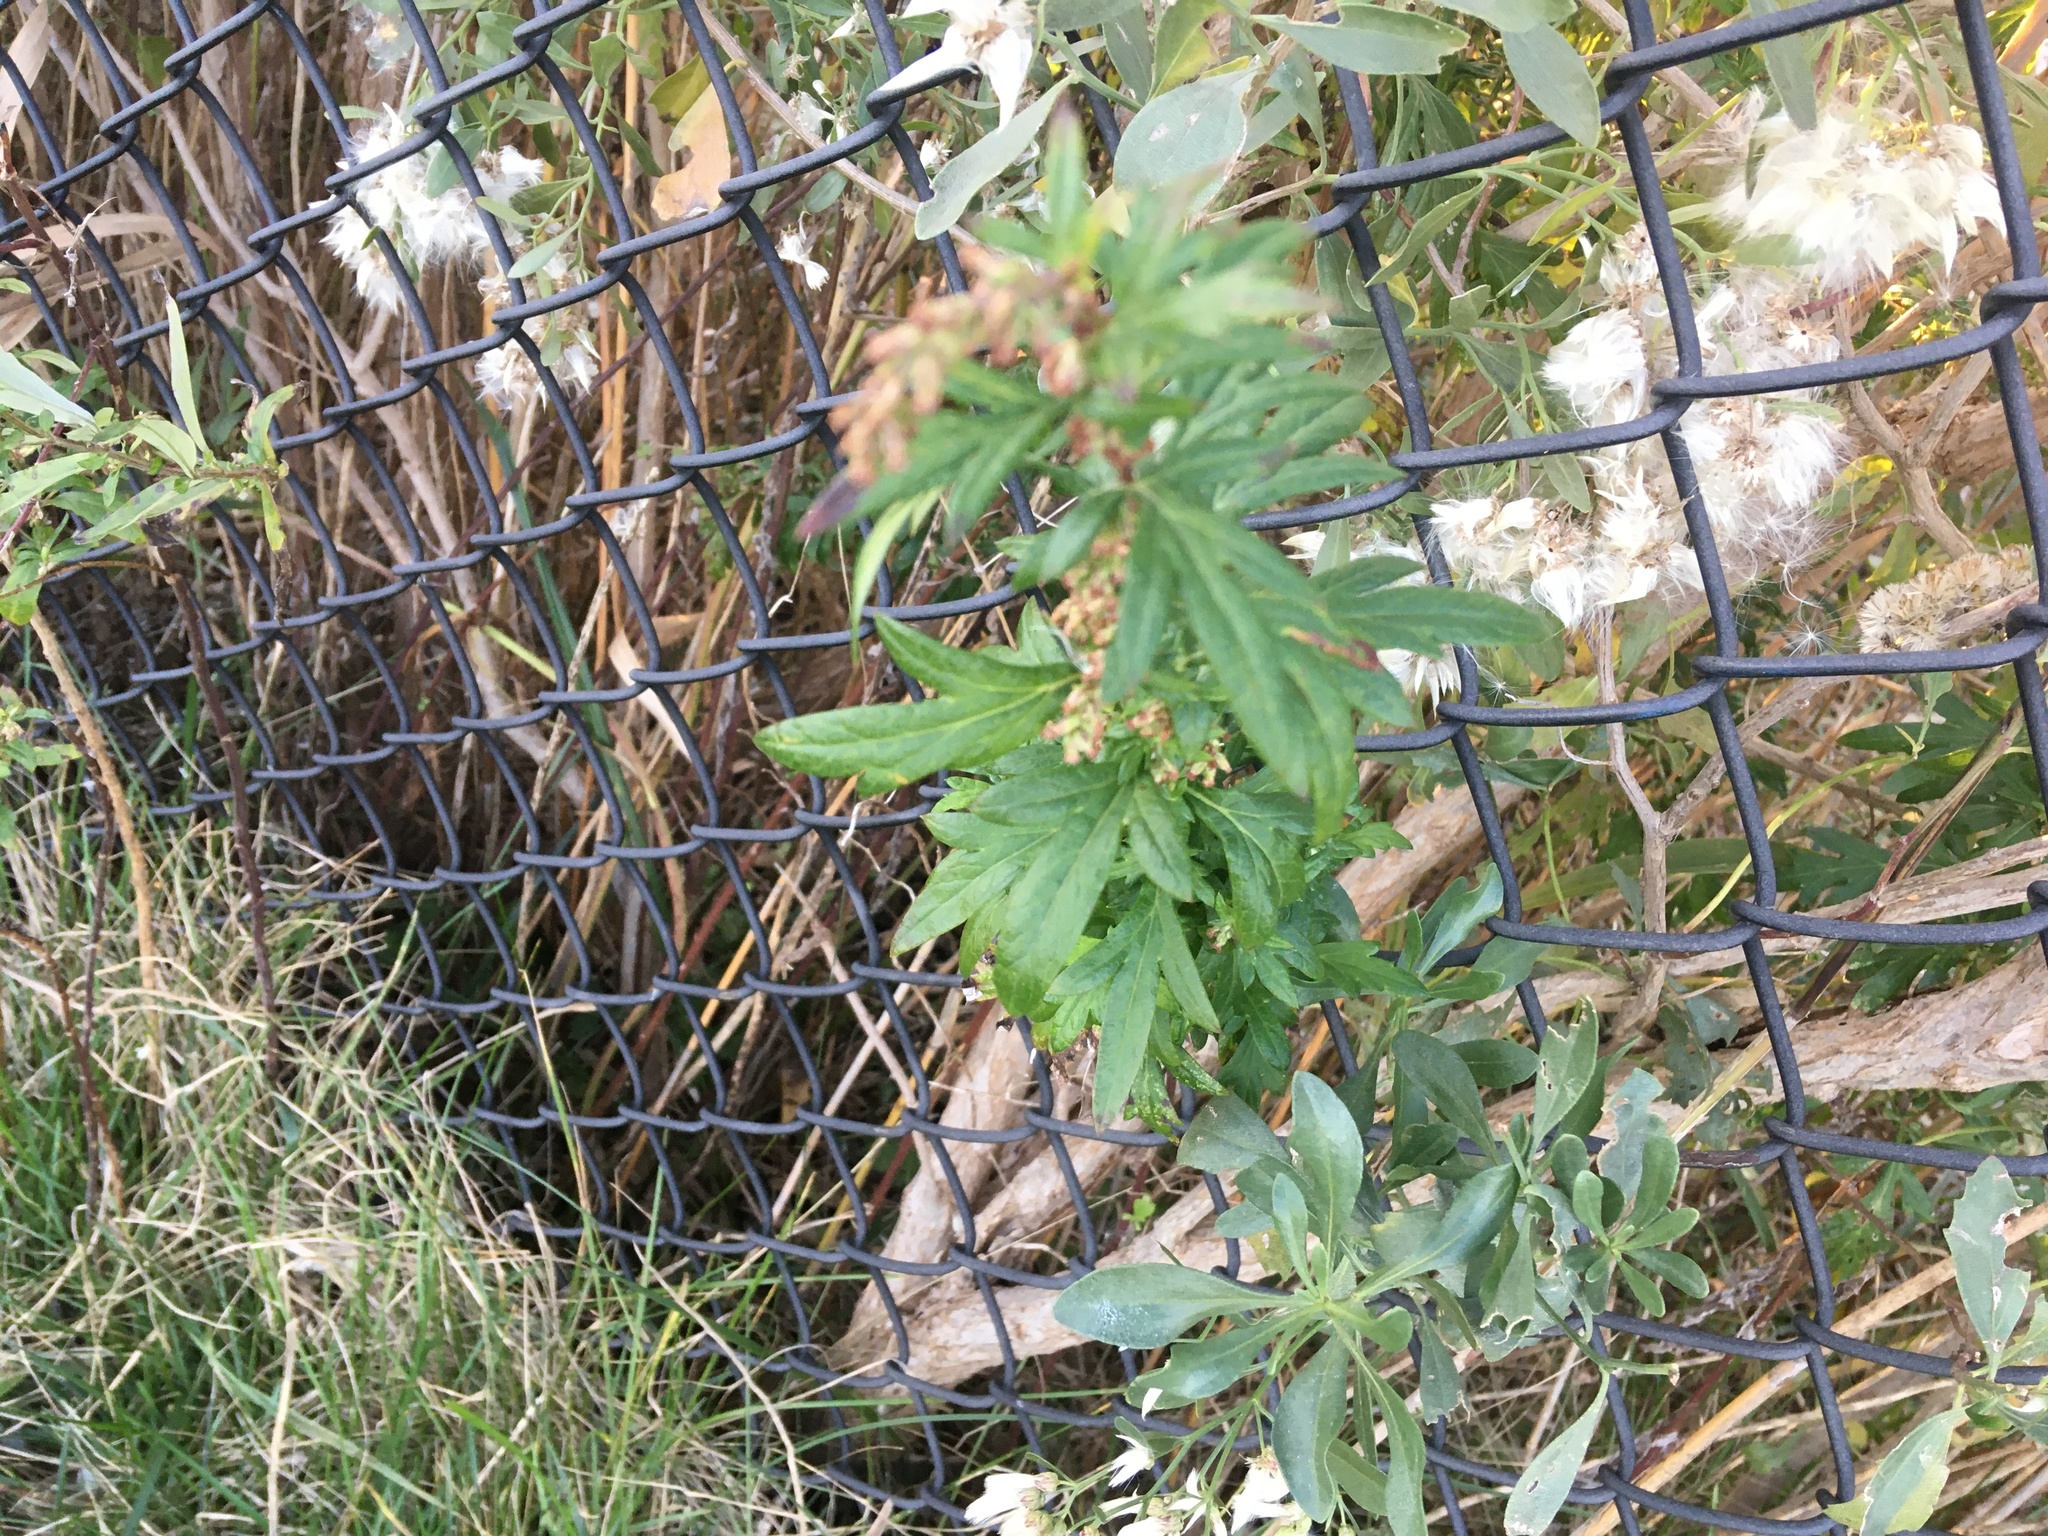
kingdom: Plantae
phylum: Tracheophyta
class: Magnoliopsida
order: Asterales
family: Asteraceae
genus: Artemisia
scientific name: Artemisia vulgaris
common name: Mugwort
